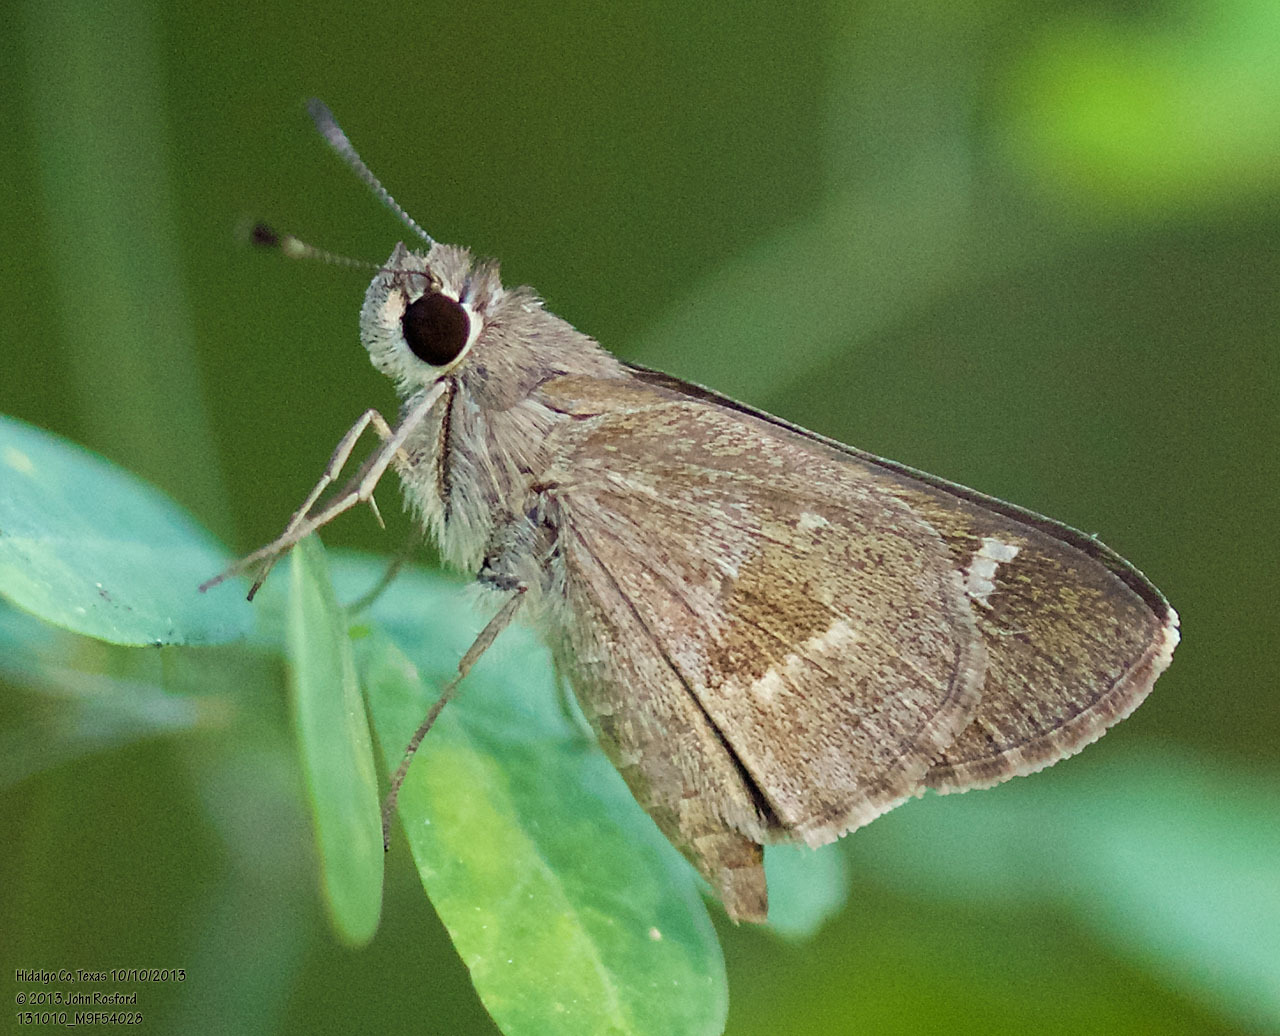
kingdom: Animalia
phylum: Arthropoda
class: Insecta
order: Lepidoptera
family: Hesperiidae
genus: Lerodea
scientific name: Lerodea arabus
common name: Violet-clouded skipper
